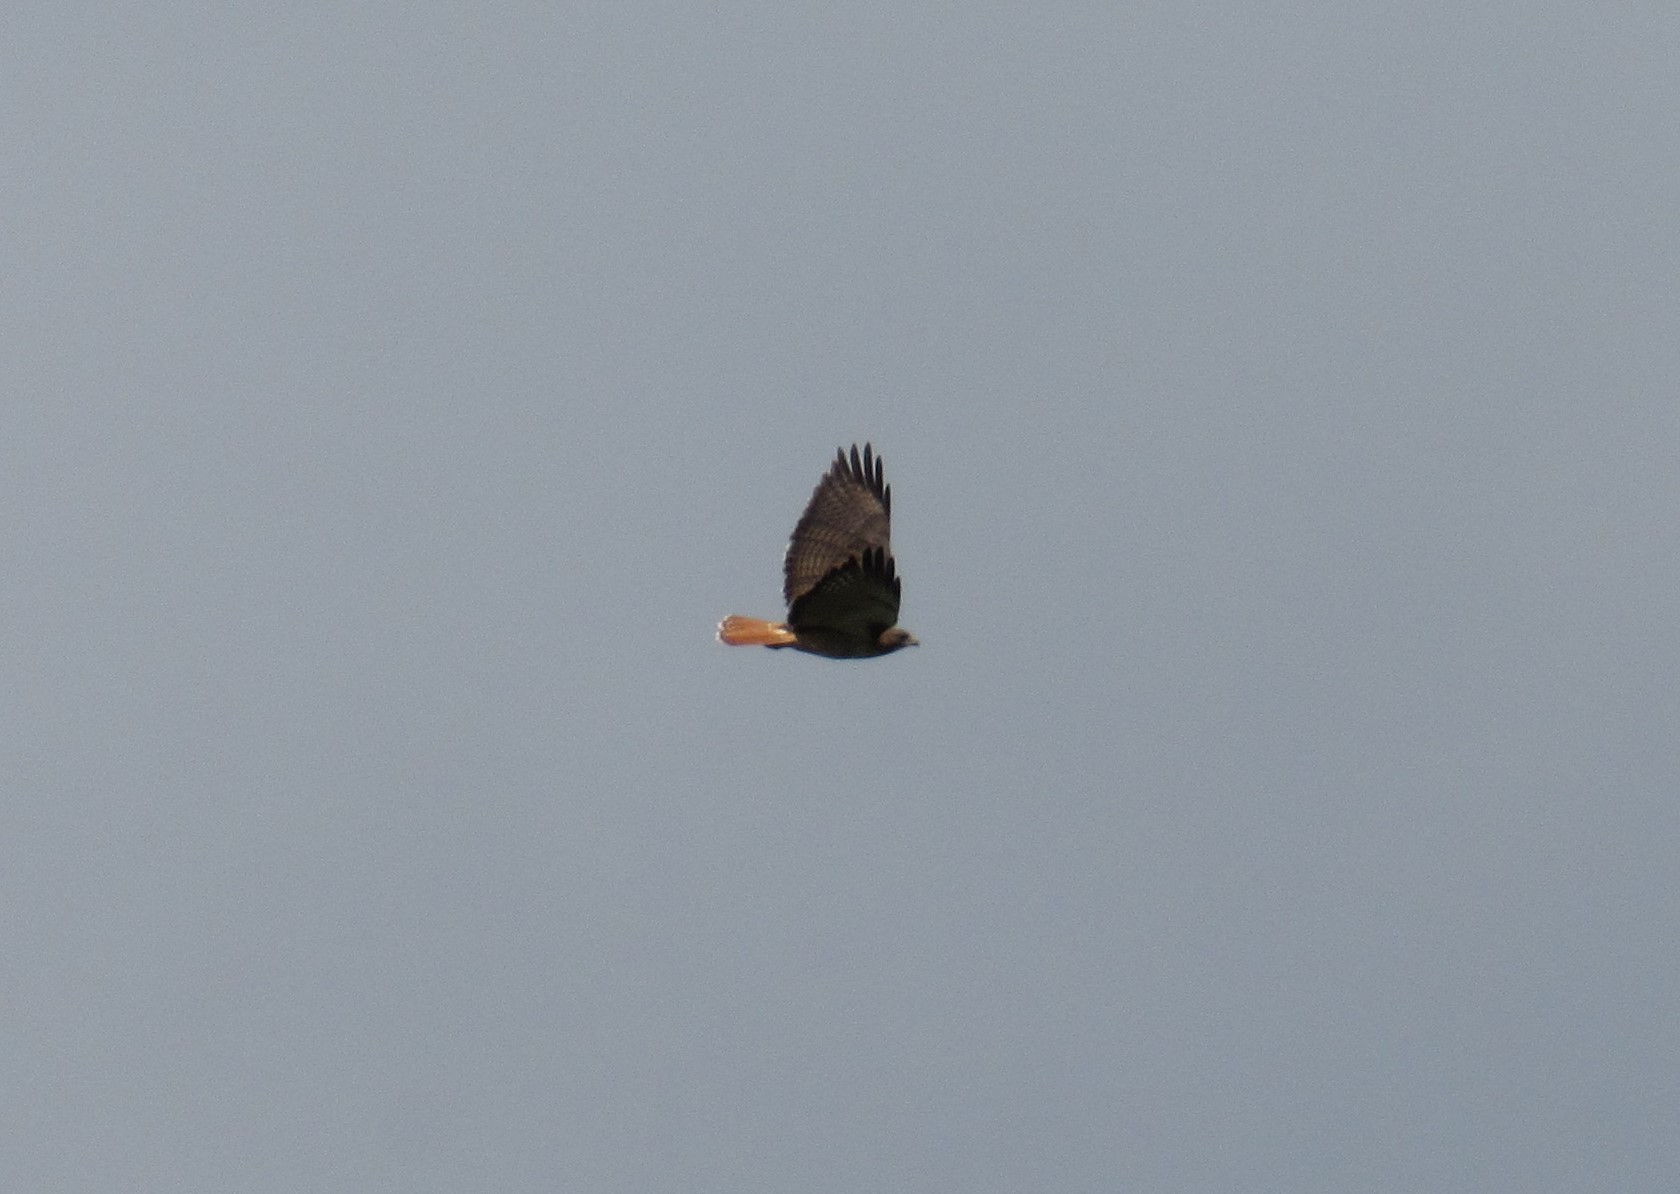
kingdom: Animalia
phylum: Chordata
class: Aves
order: Accipitriformes
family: Accipitridae
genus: Buteo
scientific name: Buteo jamaicensis
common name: Red-tailed hawk
